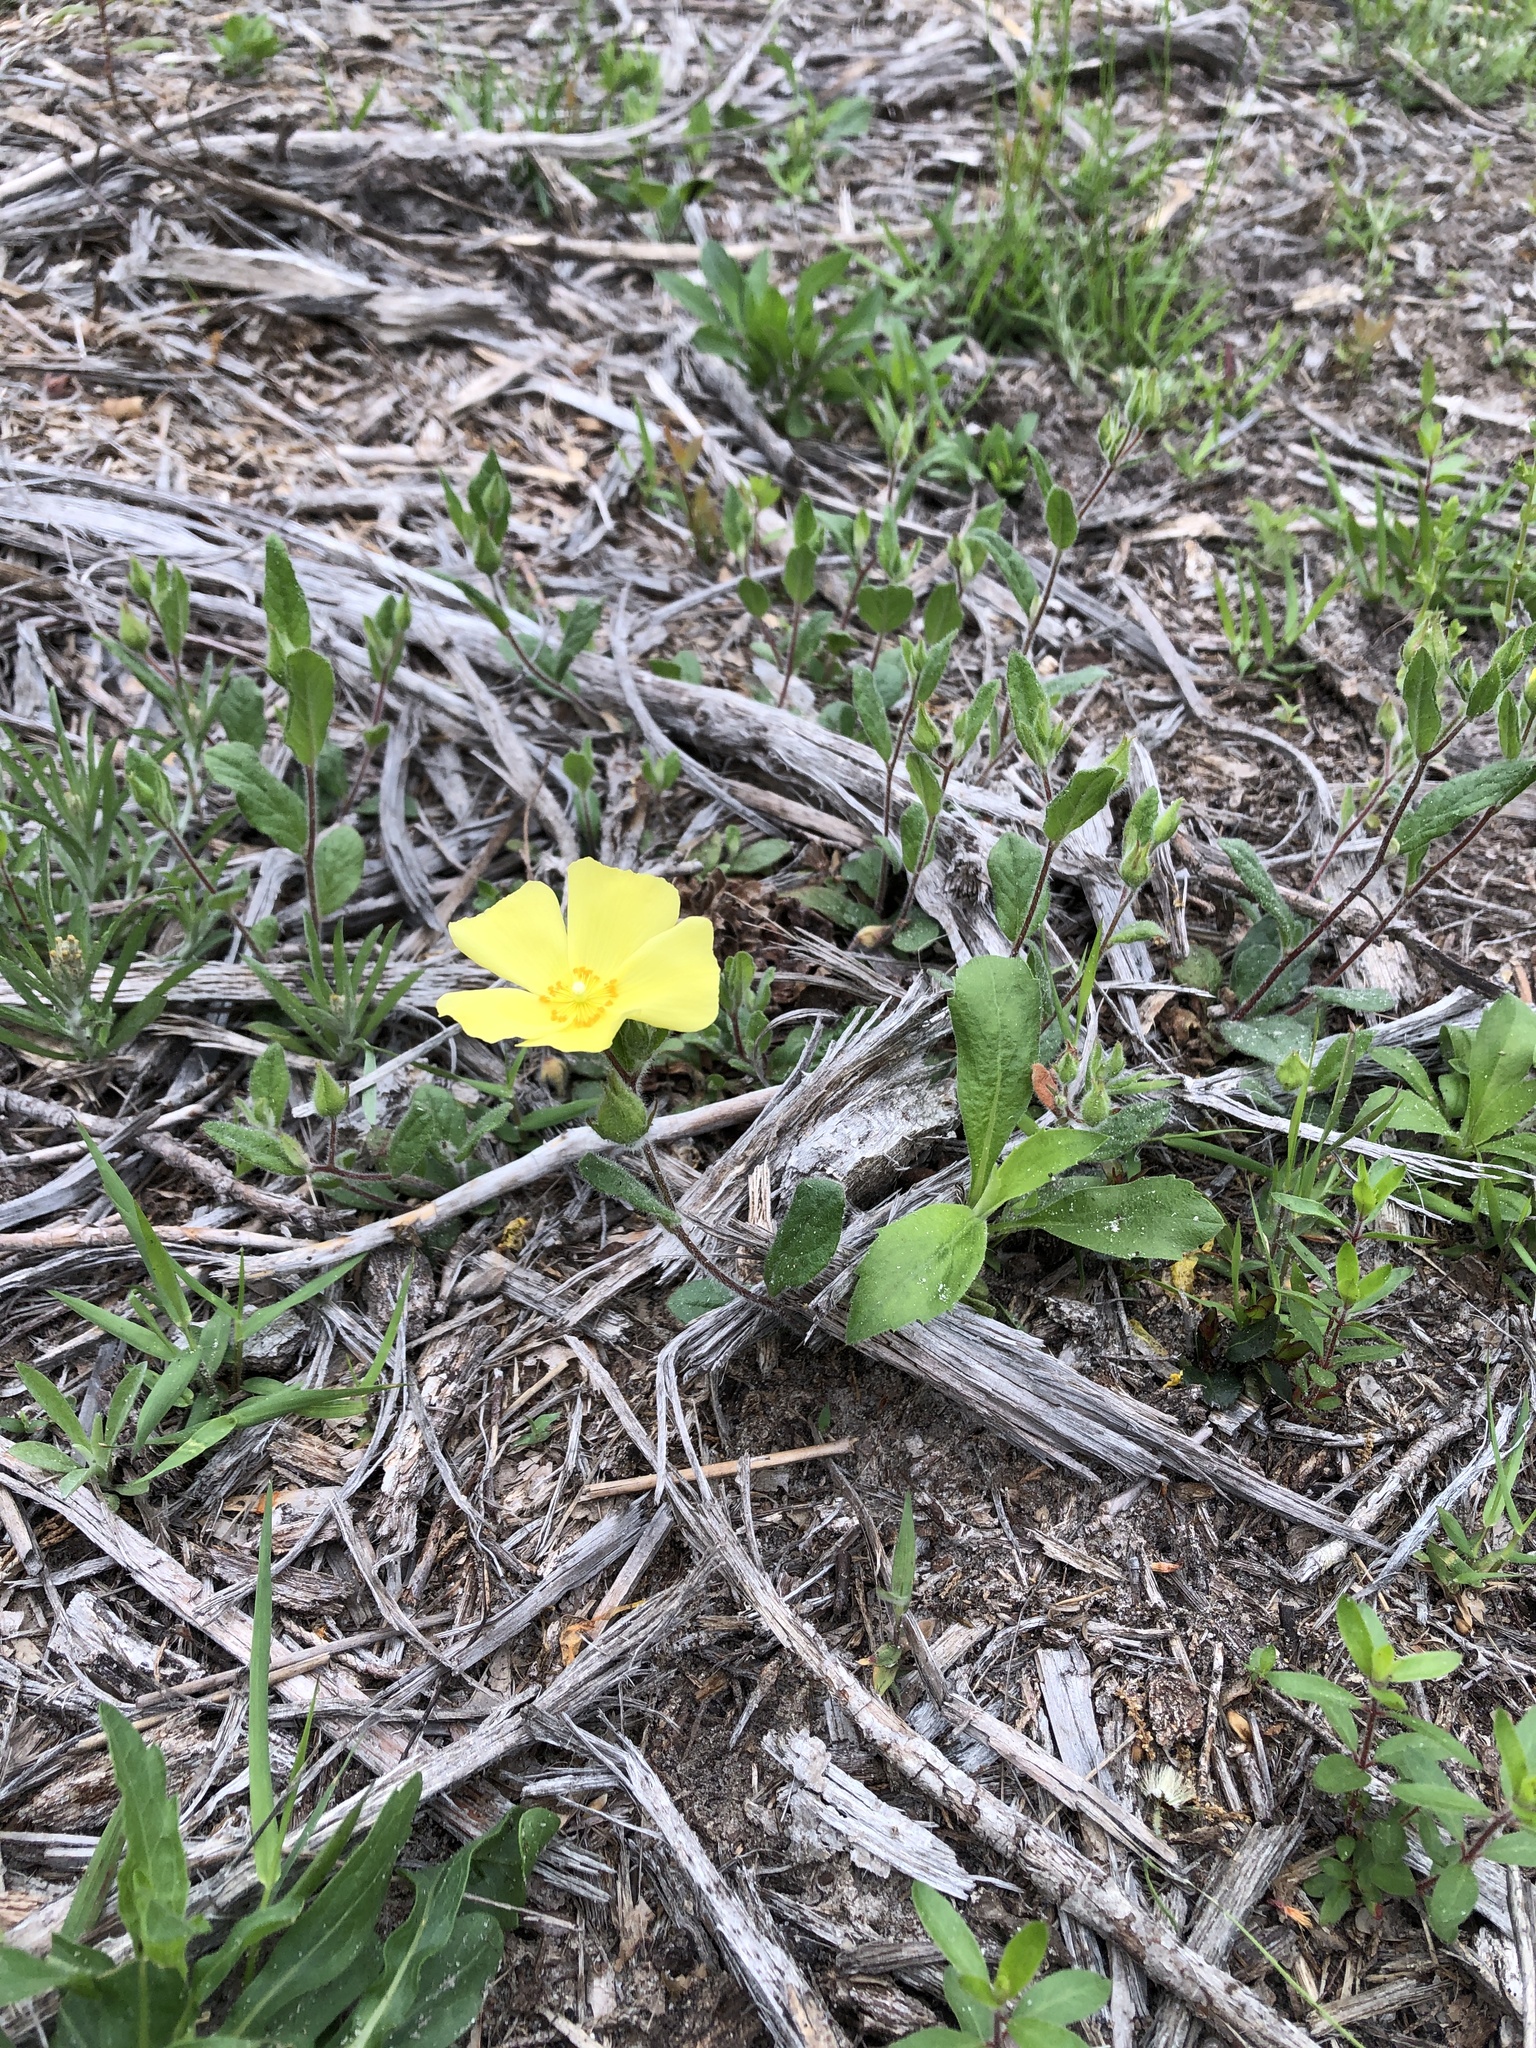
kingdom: Plantae
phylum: Tracheophyta
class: Magnoliopsida
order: Malvales
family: Cistaceae
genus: Crocanthemum
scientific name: Crocanthemum carolinianum
